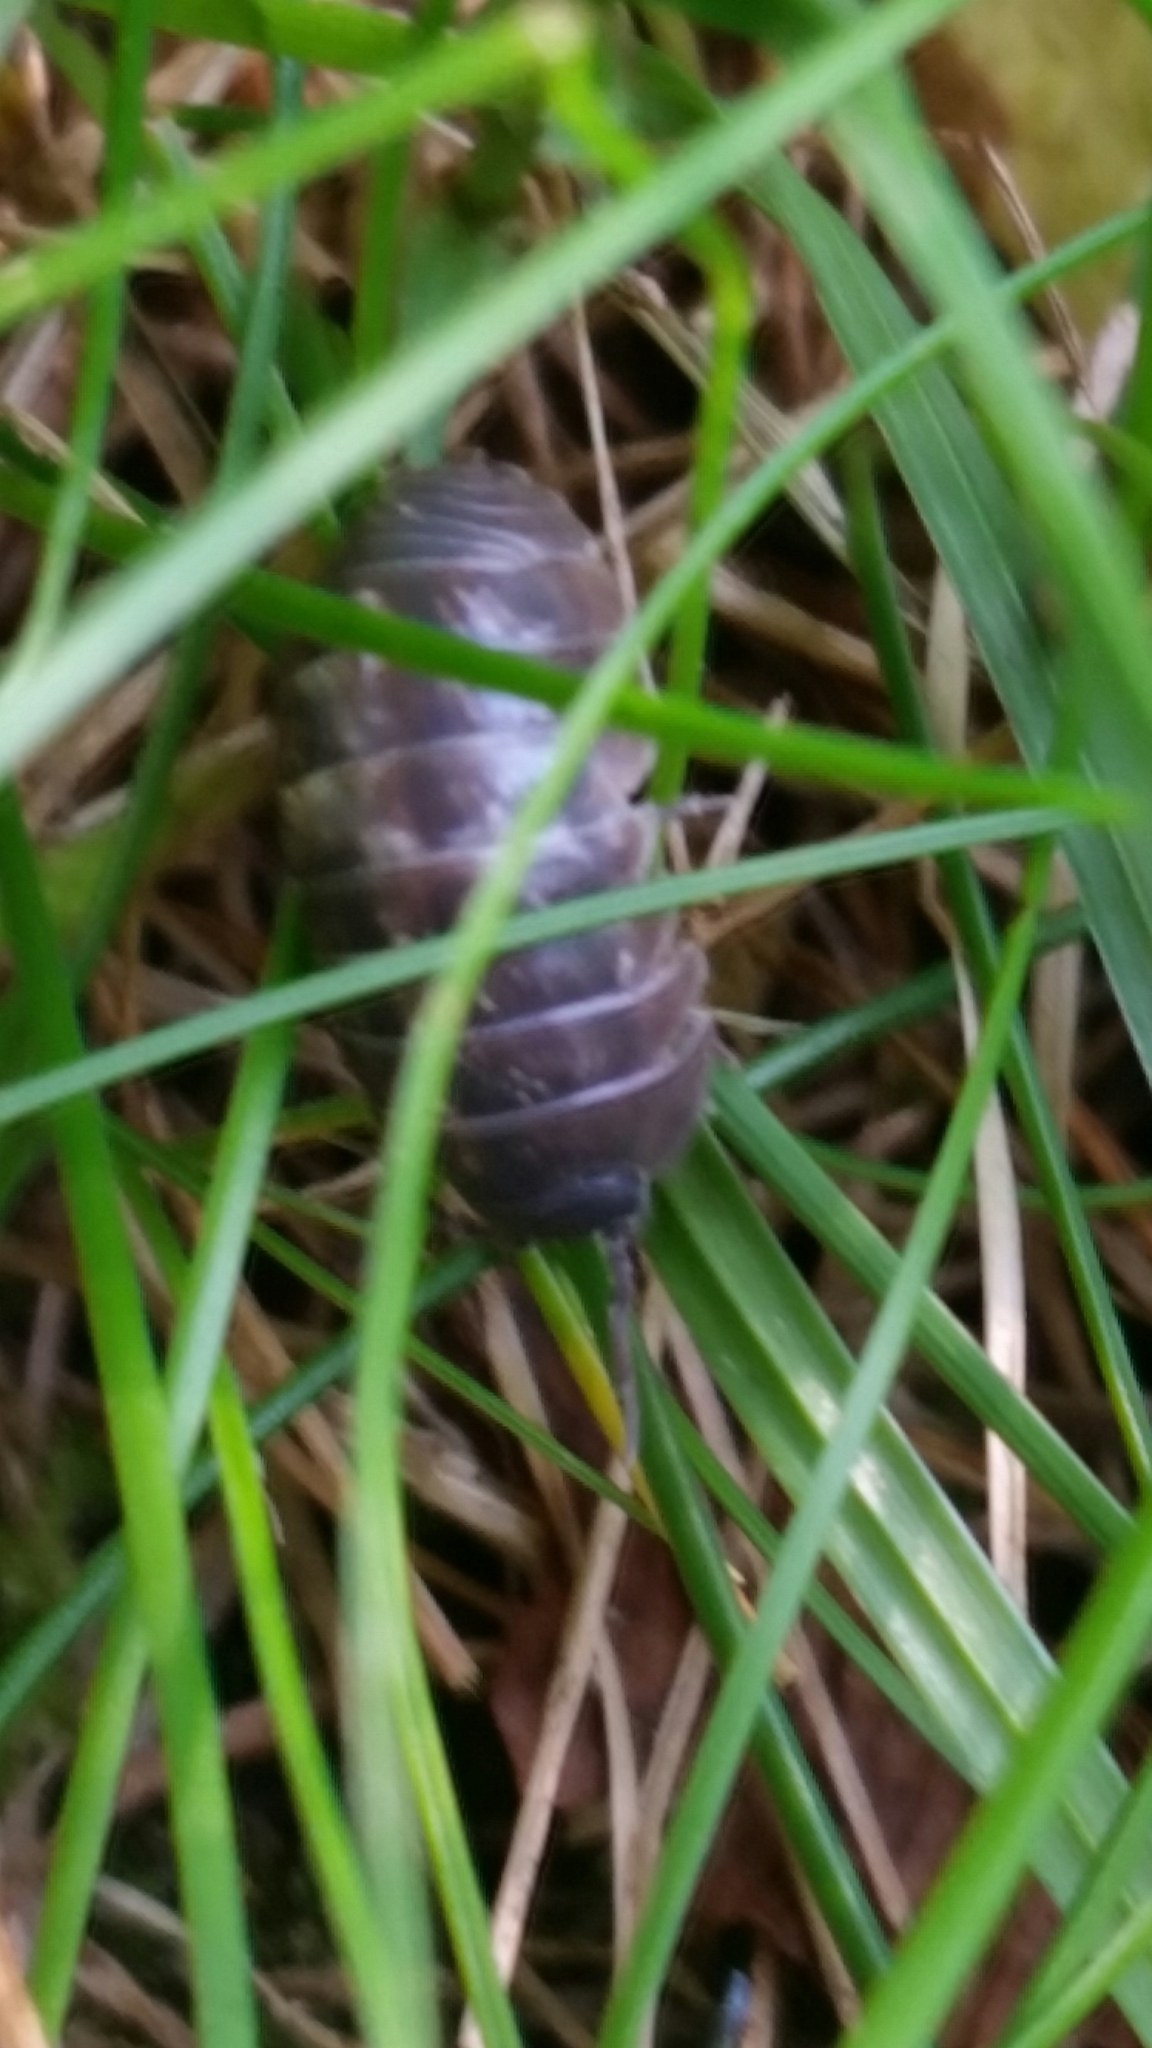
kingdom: Animalia
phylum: Arthropoda
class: Malacostraca
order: Isopoda
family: Armadillidiidae
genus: Armadillidium
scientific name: Armadillidium vulgare
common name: Common pill woodlouse
